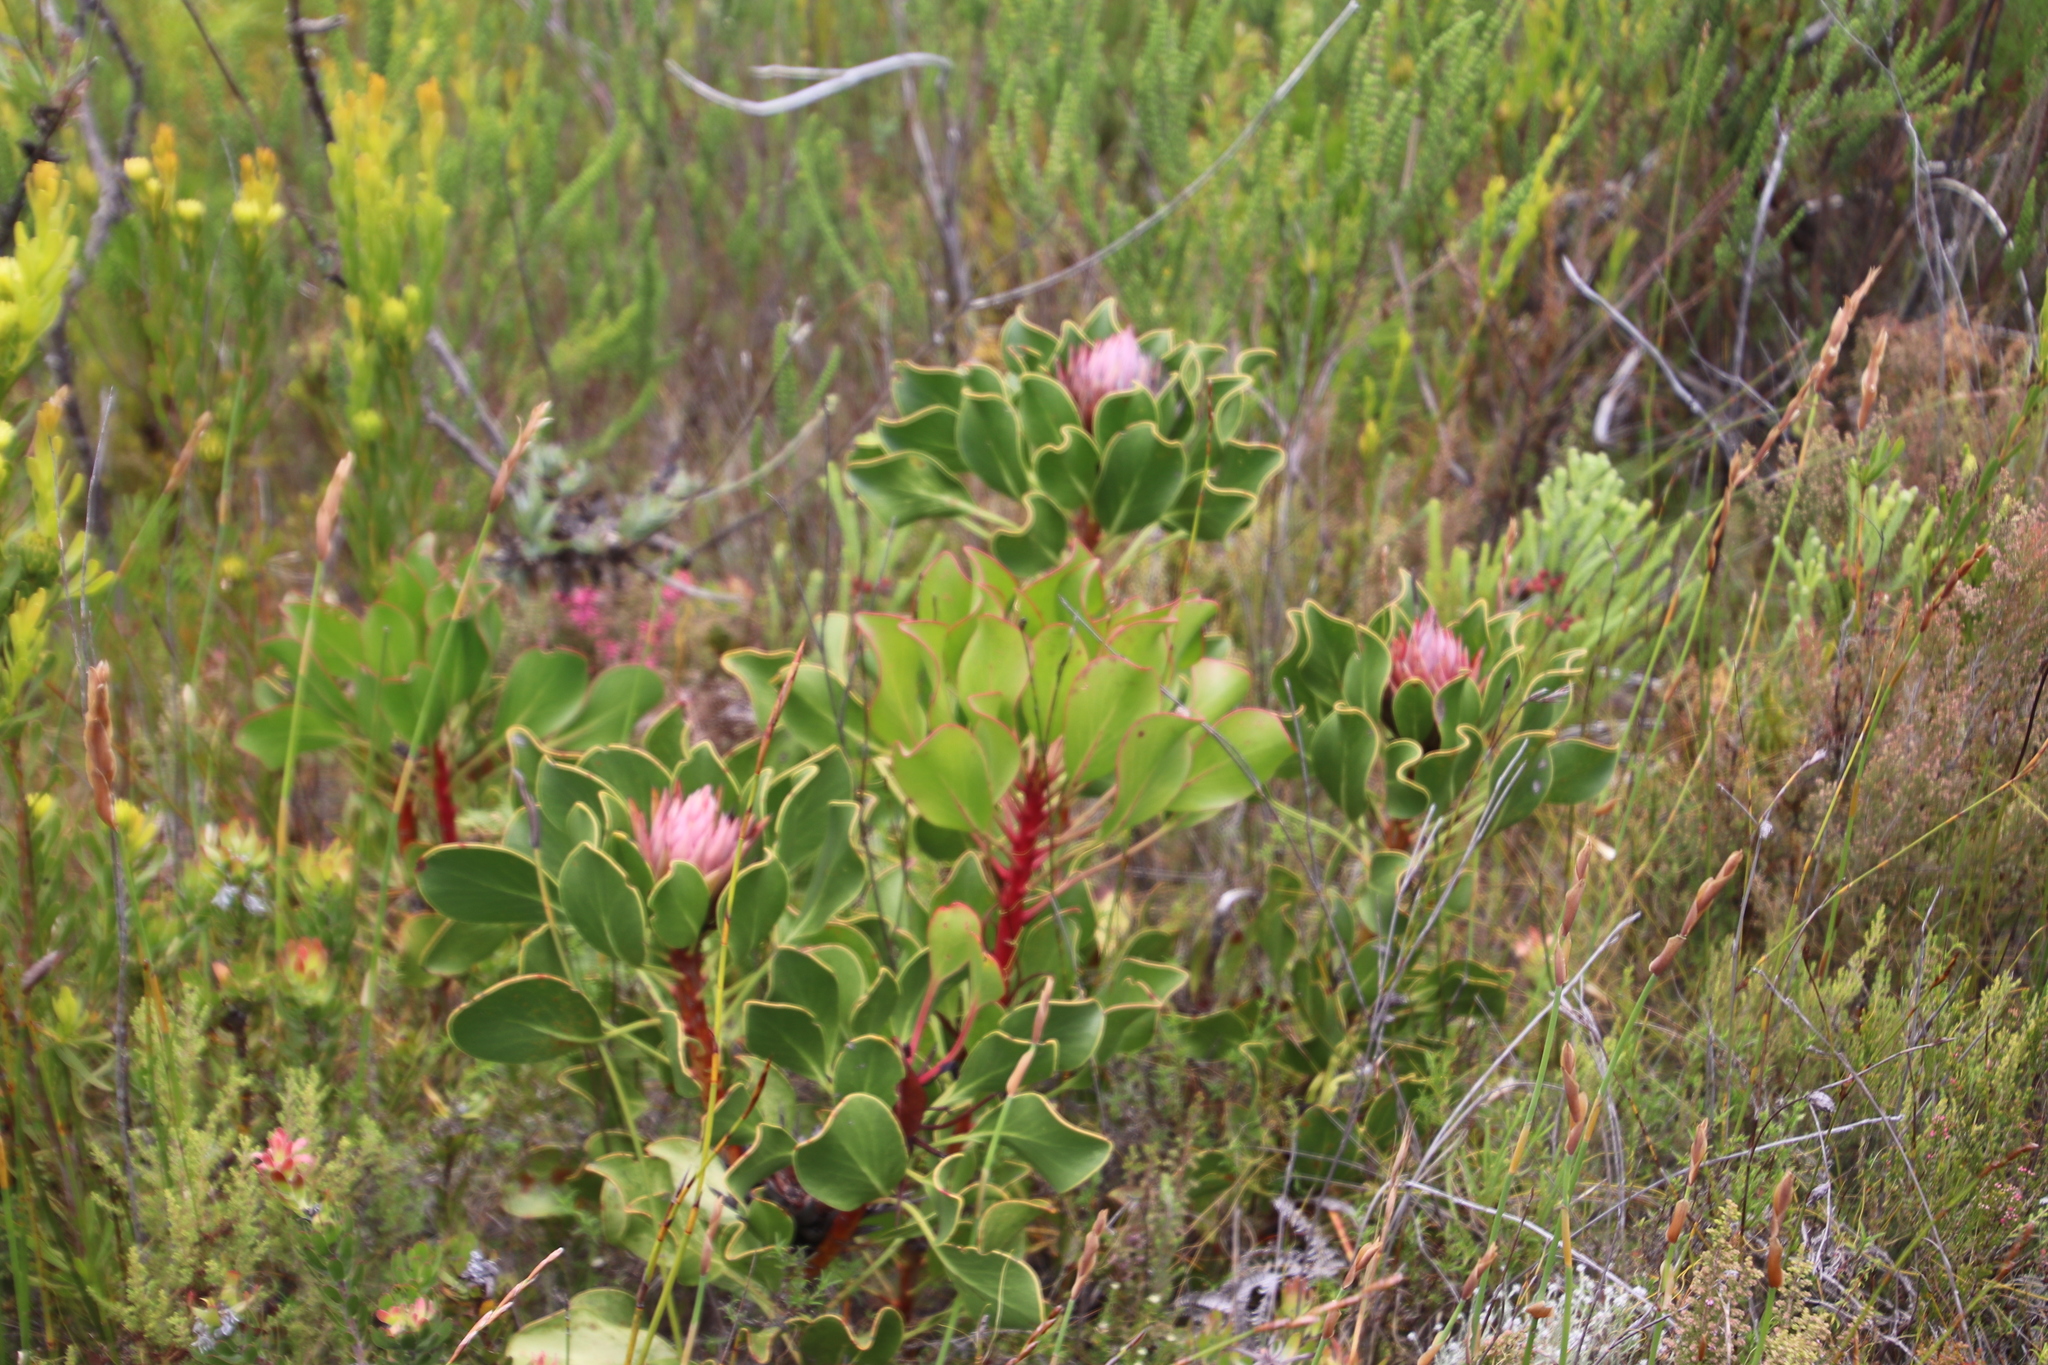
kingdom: Plantae
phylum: Tracheophyta
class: Magnoliopsida
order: Proteales
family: Proteaceae
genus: Protea
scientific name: Protea cynaroides
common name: King protea
